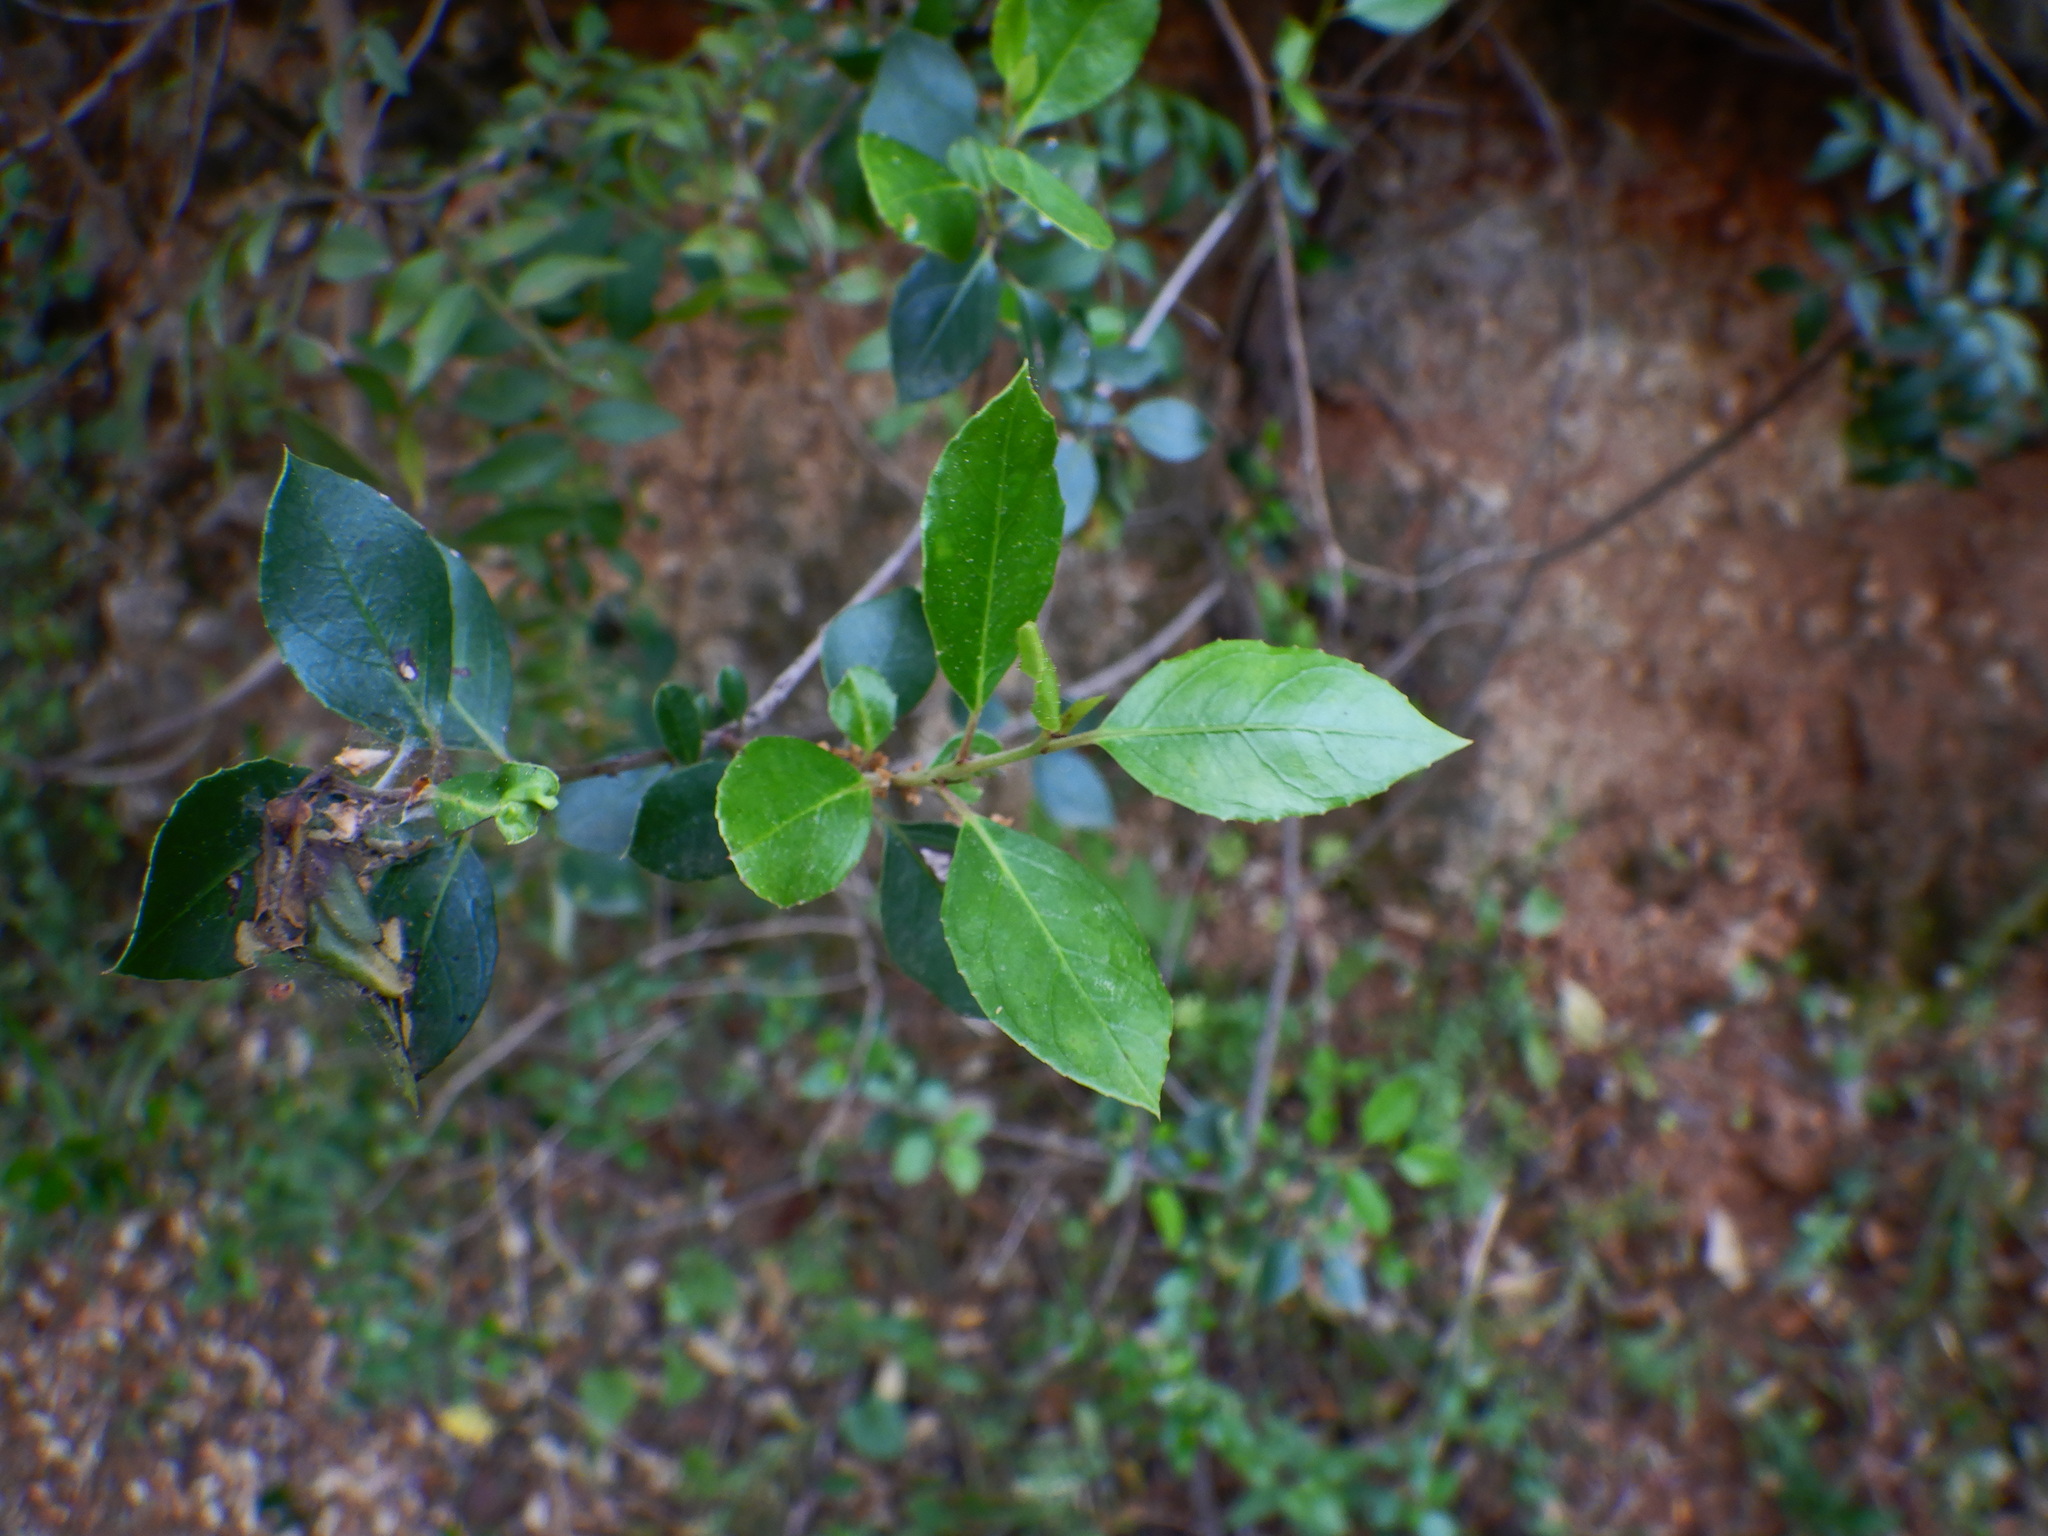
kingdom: Plantae
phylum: Tracheophyta
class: Magnoliopsida
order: Rosales
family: Rhamnaceae
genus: Rhamnus
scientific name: Rhamnus alaternus
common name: Mediterranean buckthorn
